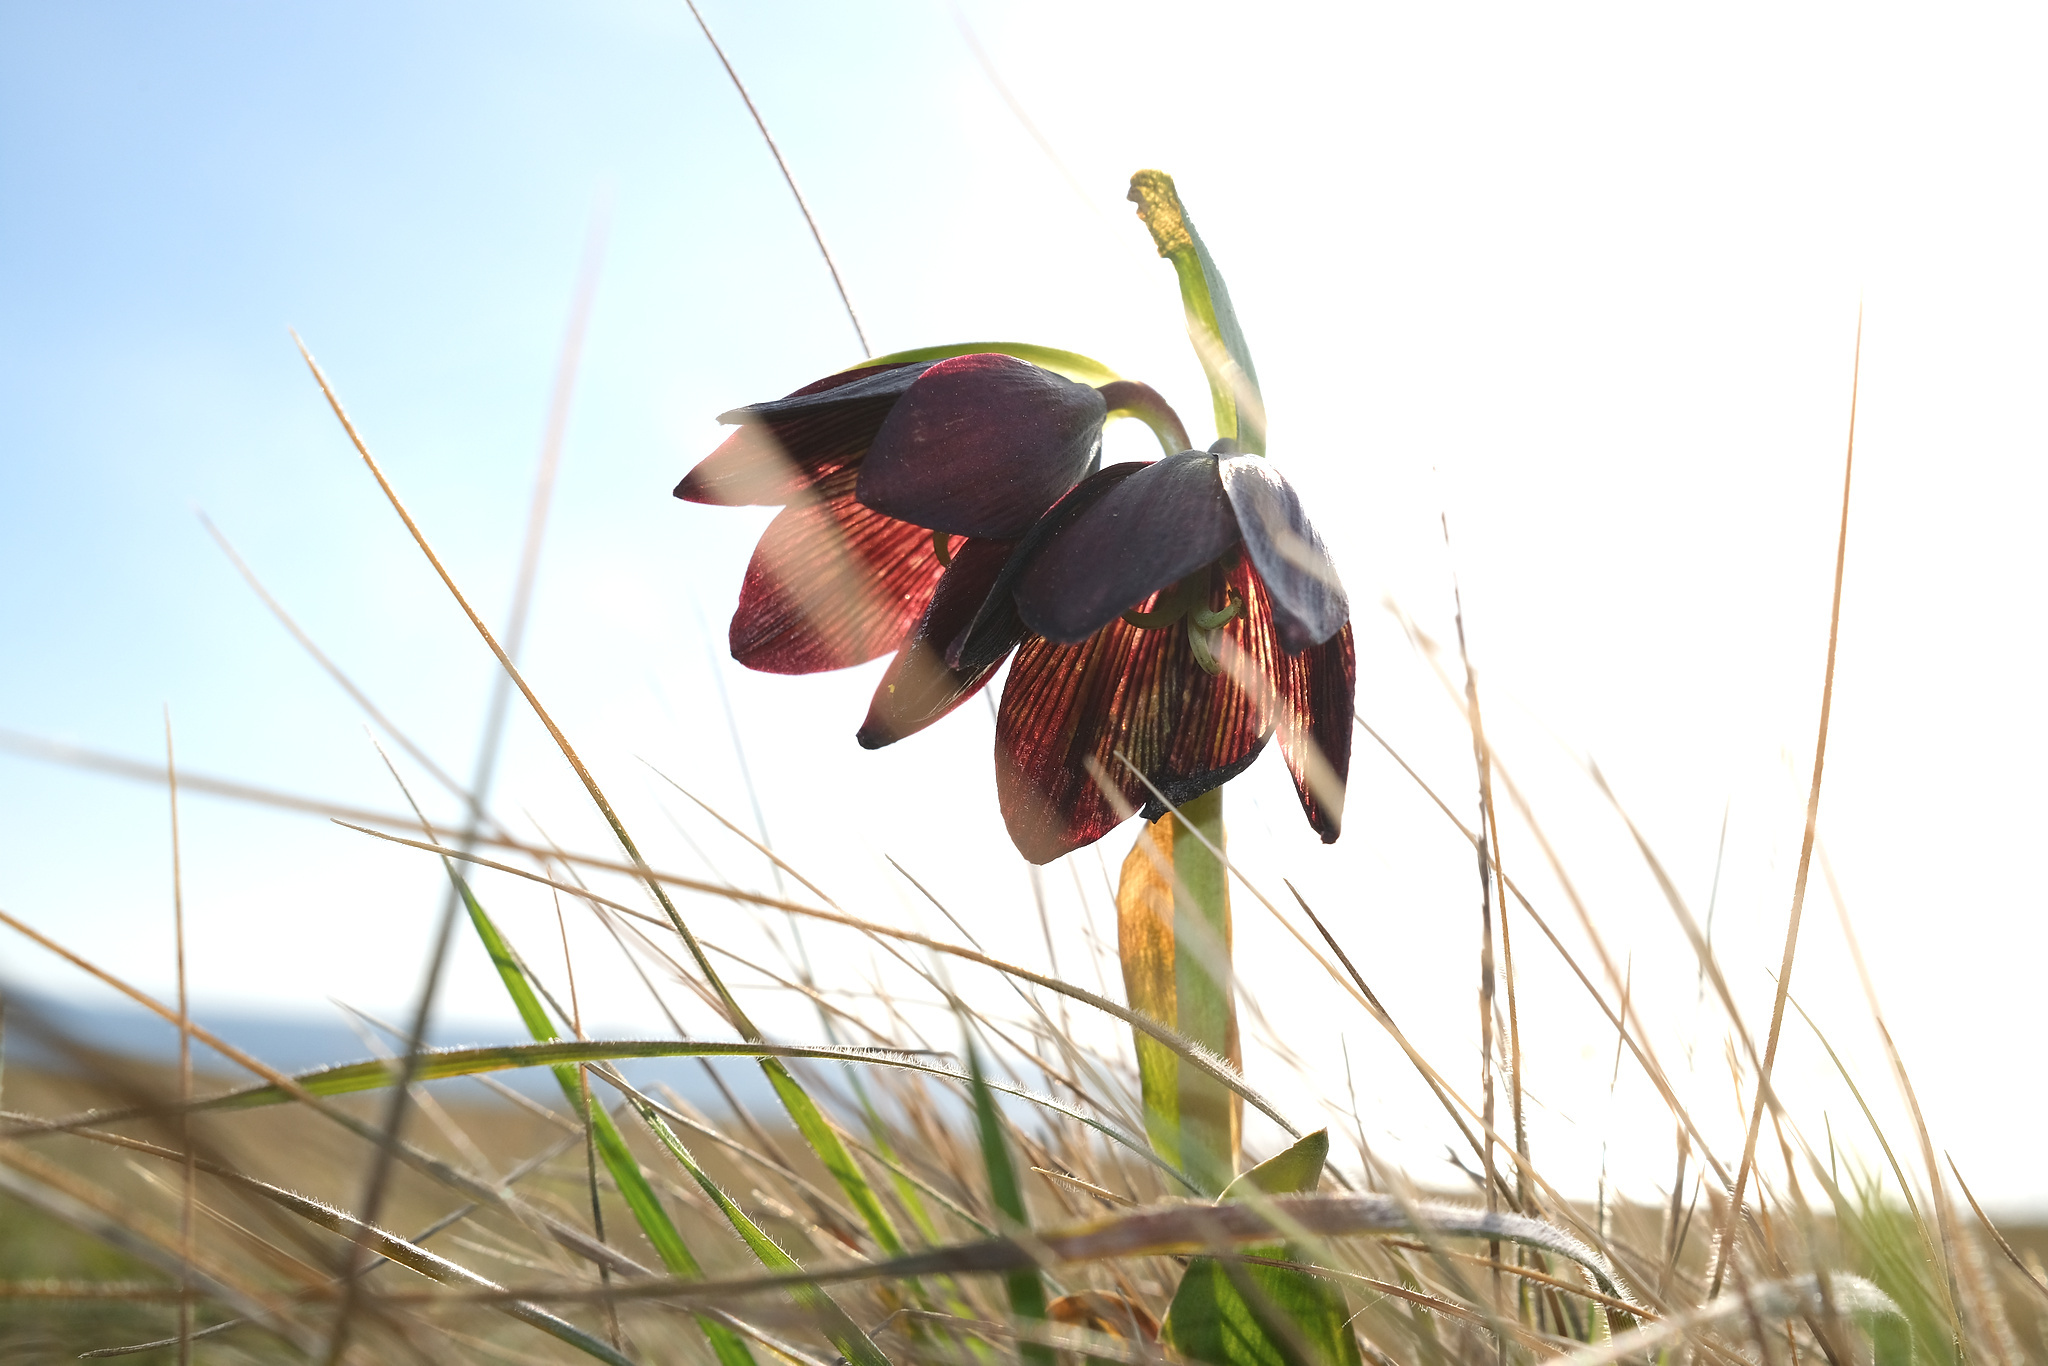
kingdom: Plantae
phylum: Tracheophyta
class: Liliopsida
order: Liliales
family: Liliaceae
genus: Fritillaria
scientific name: Fritillaria biflora
